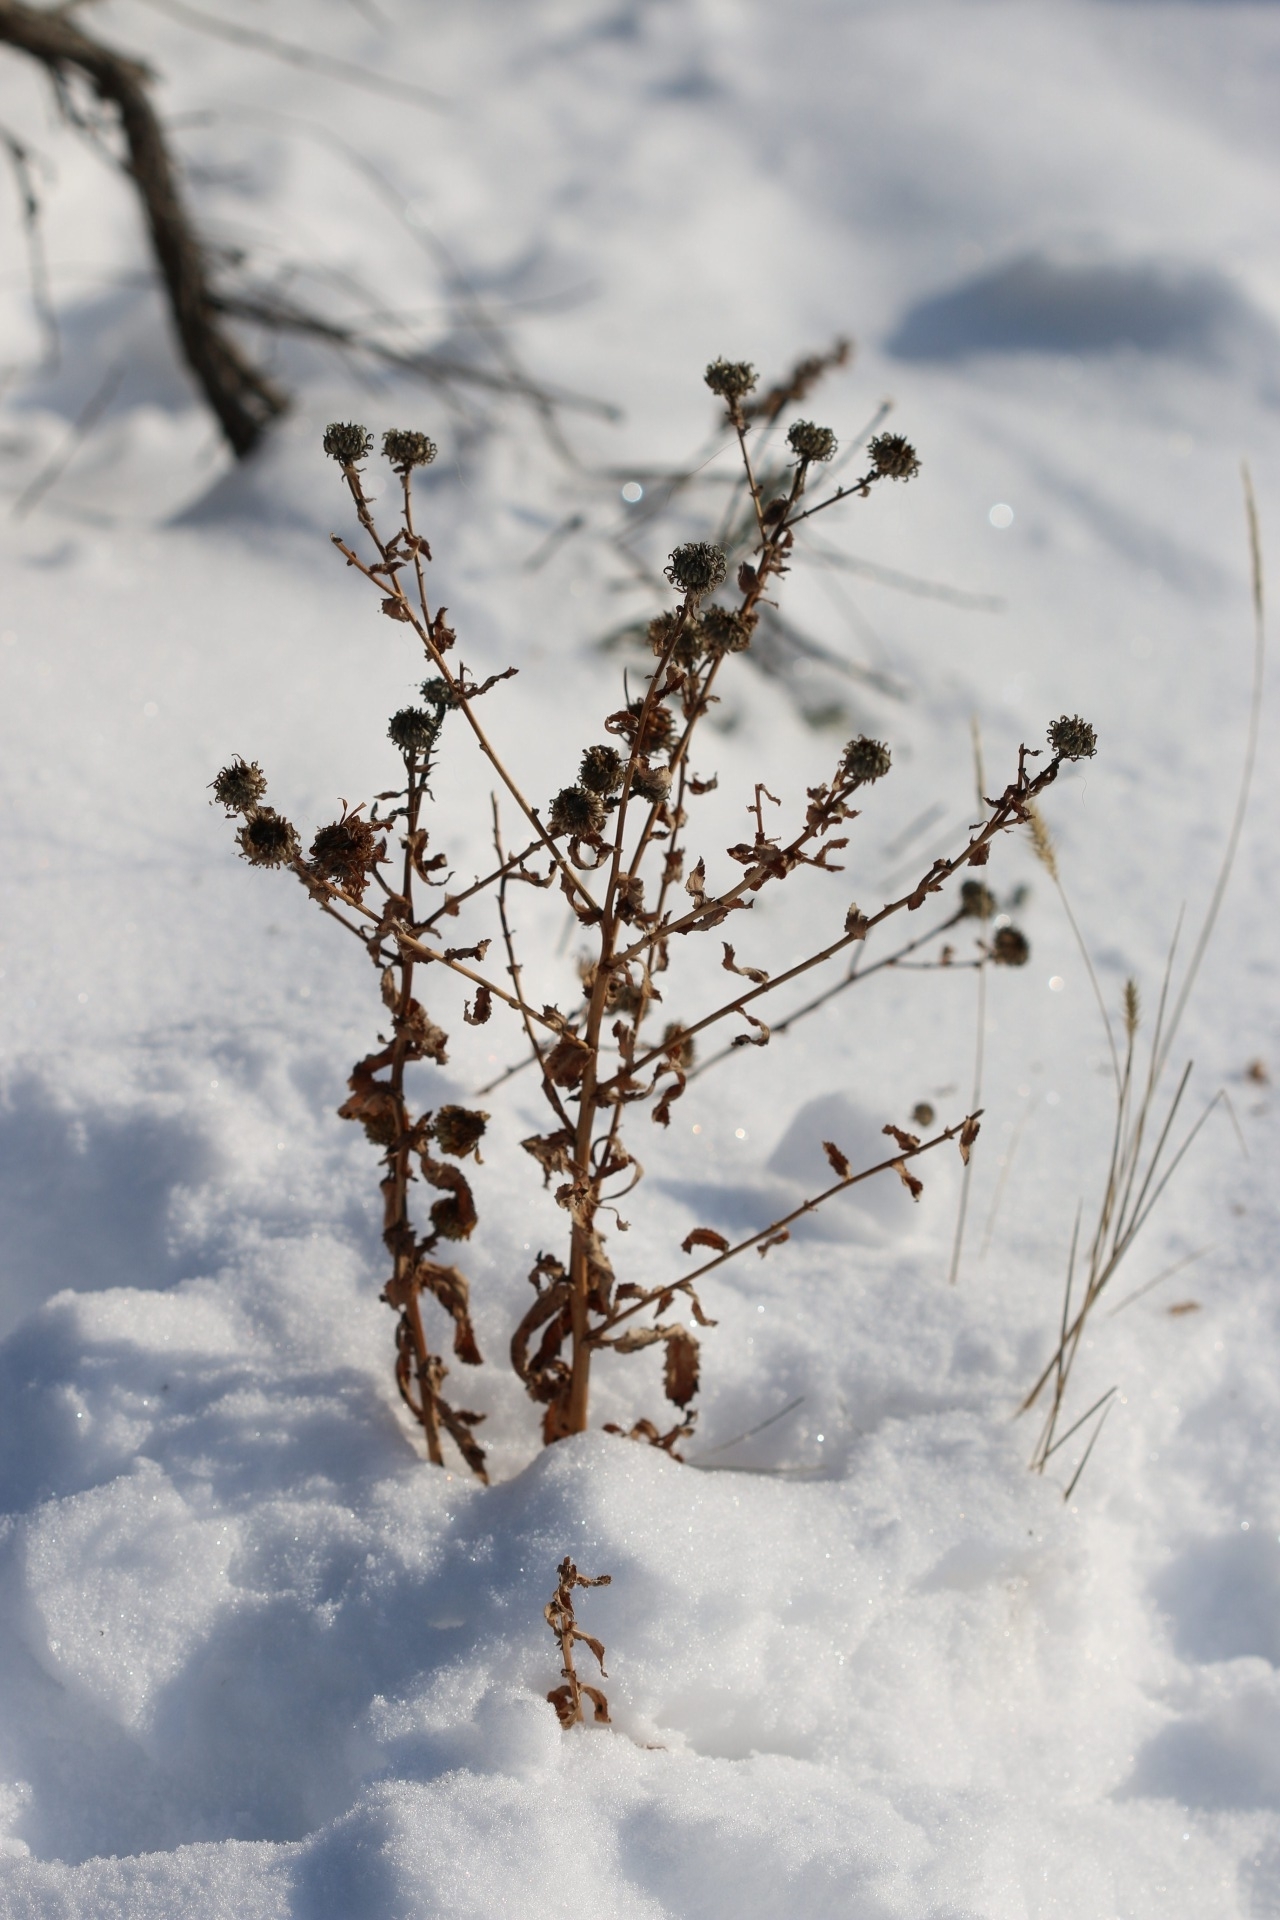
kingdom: Plantae
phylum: Tracheophyta
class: Magnoliopsida
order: Asterales
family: Asteraceae
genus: Grindelia
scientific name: Grindelia squarrosa
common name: Curly-cup gumweed
